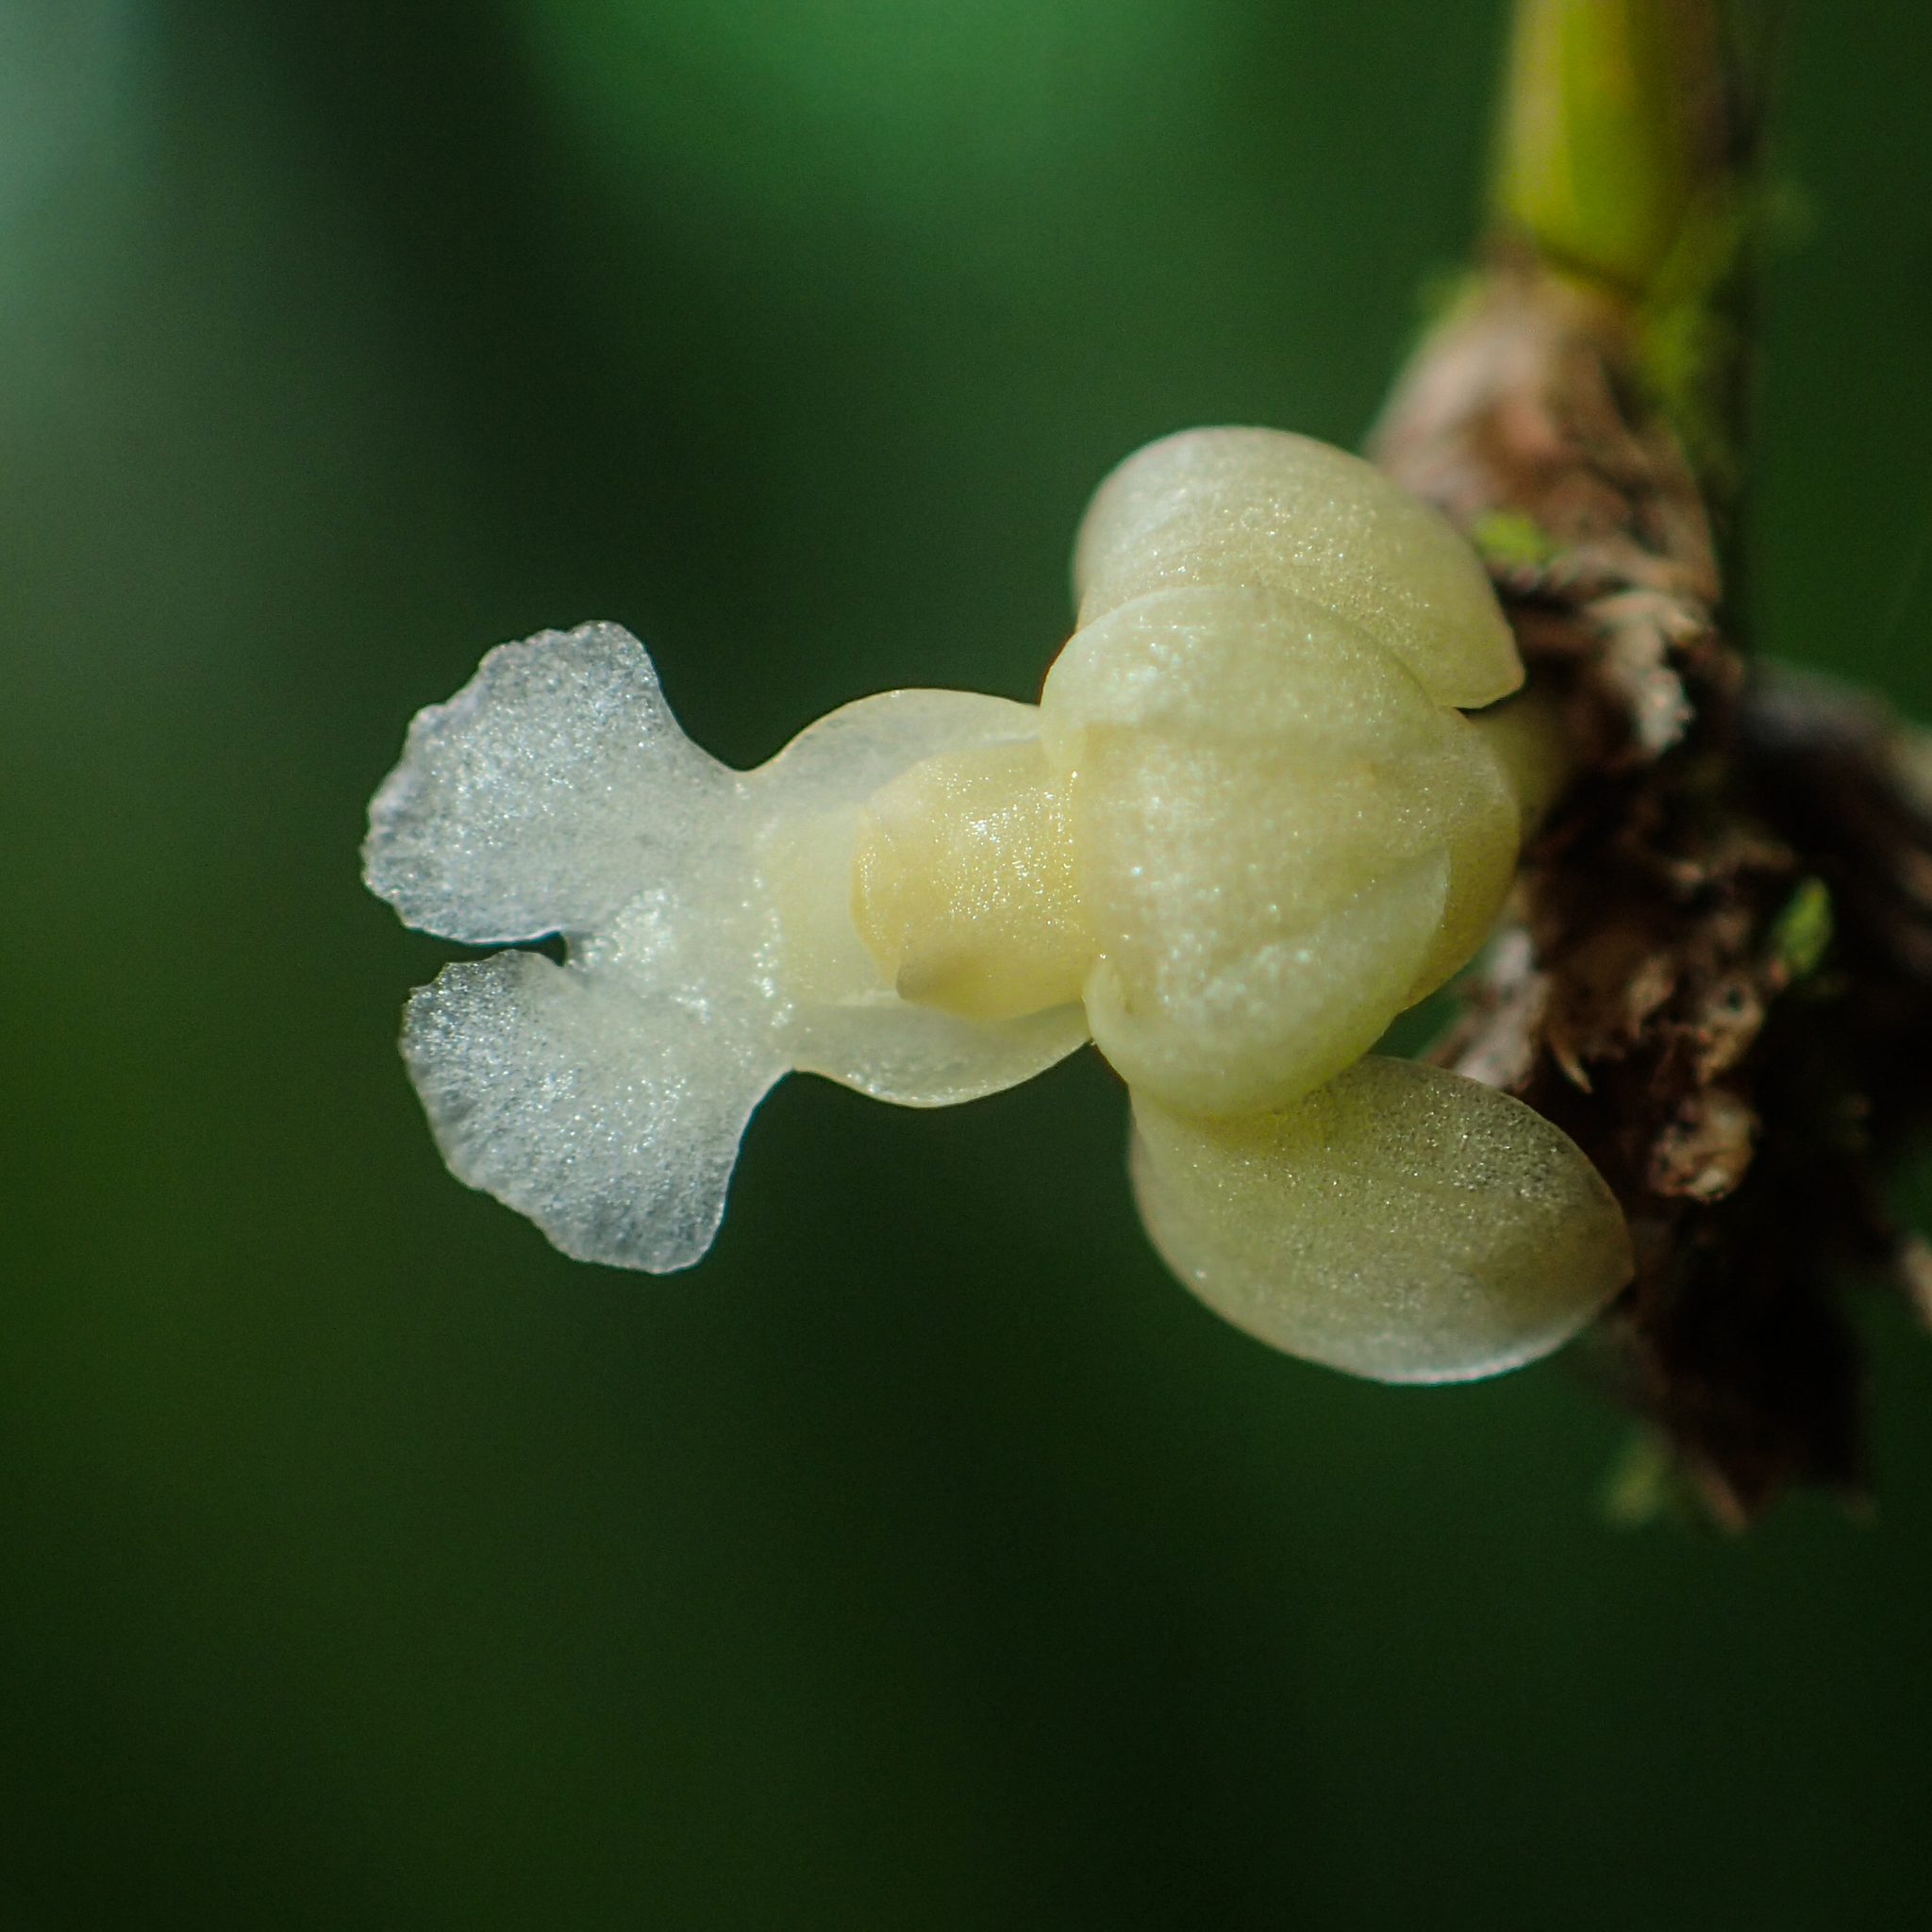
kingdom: Plantae
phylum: Tracheophyta
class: Liliopsida
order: Asparagales
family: Orchidaceae
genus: Dendrobium
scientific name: Dendrobium aloifolium
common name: Aloe-like dendrobium
